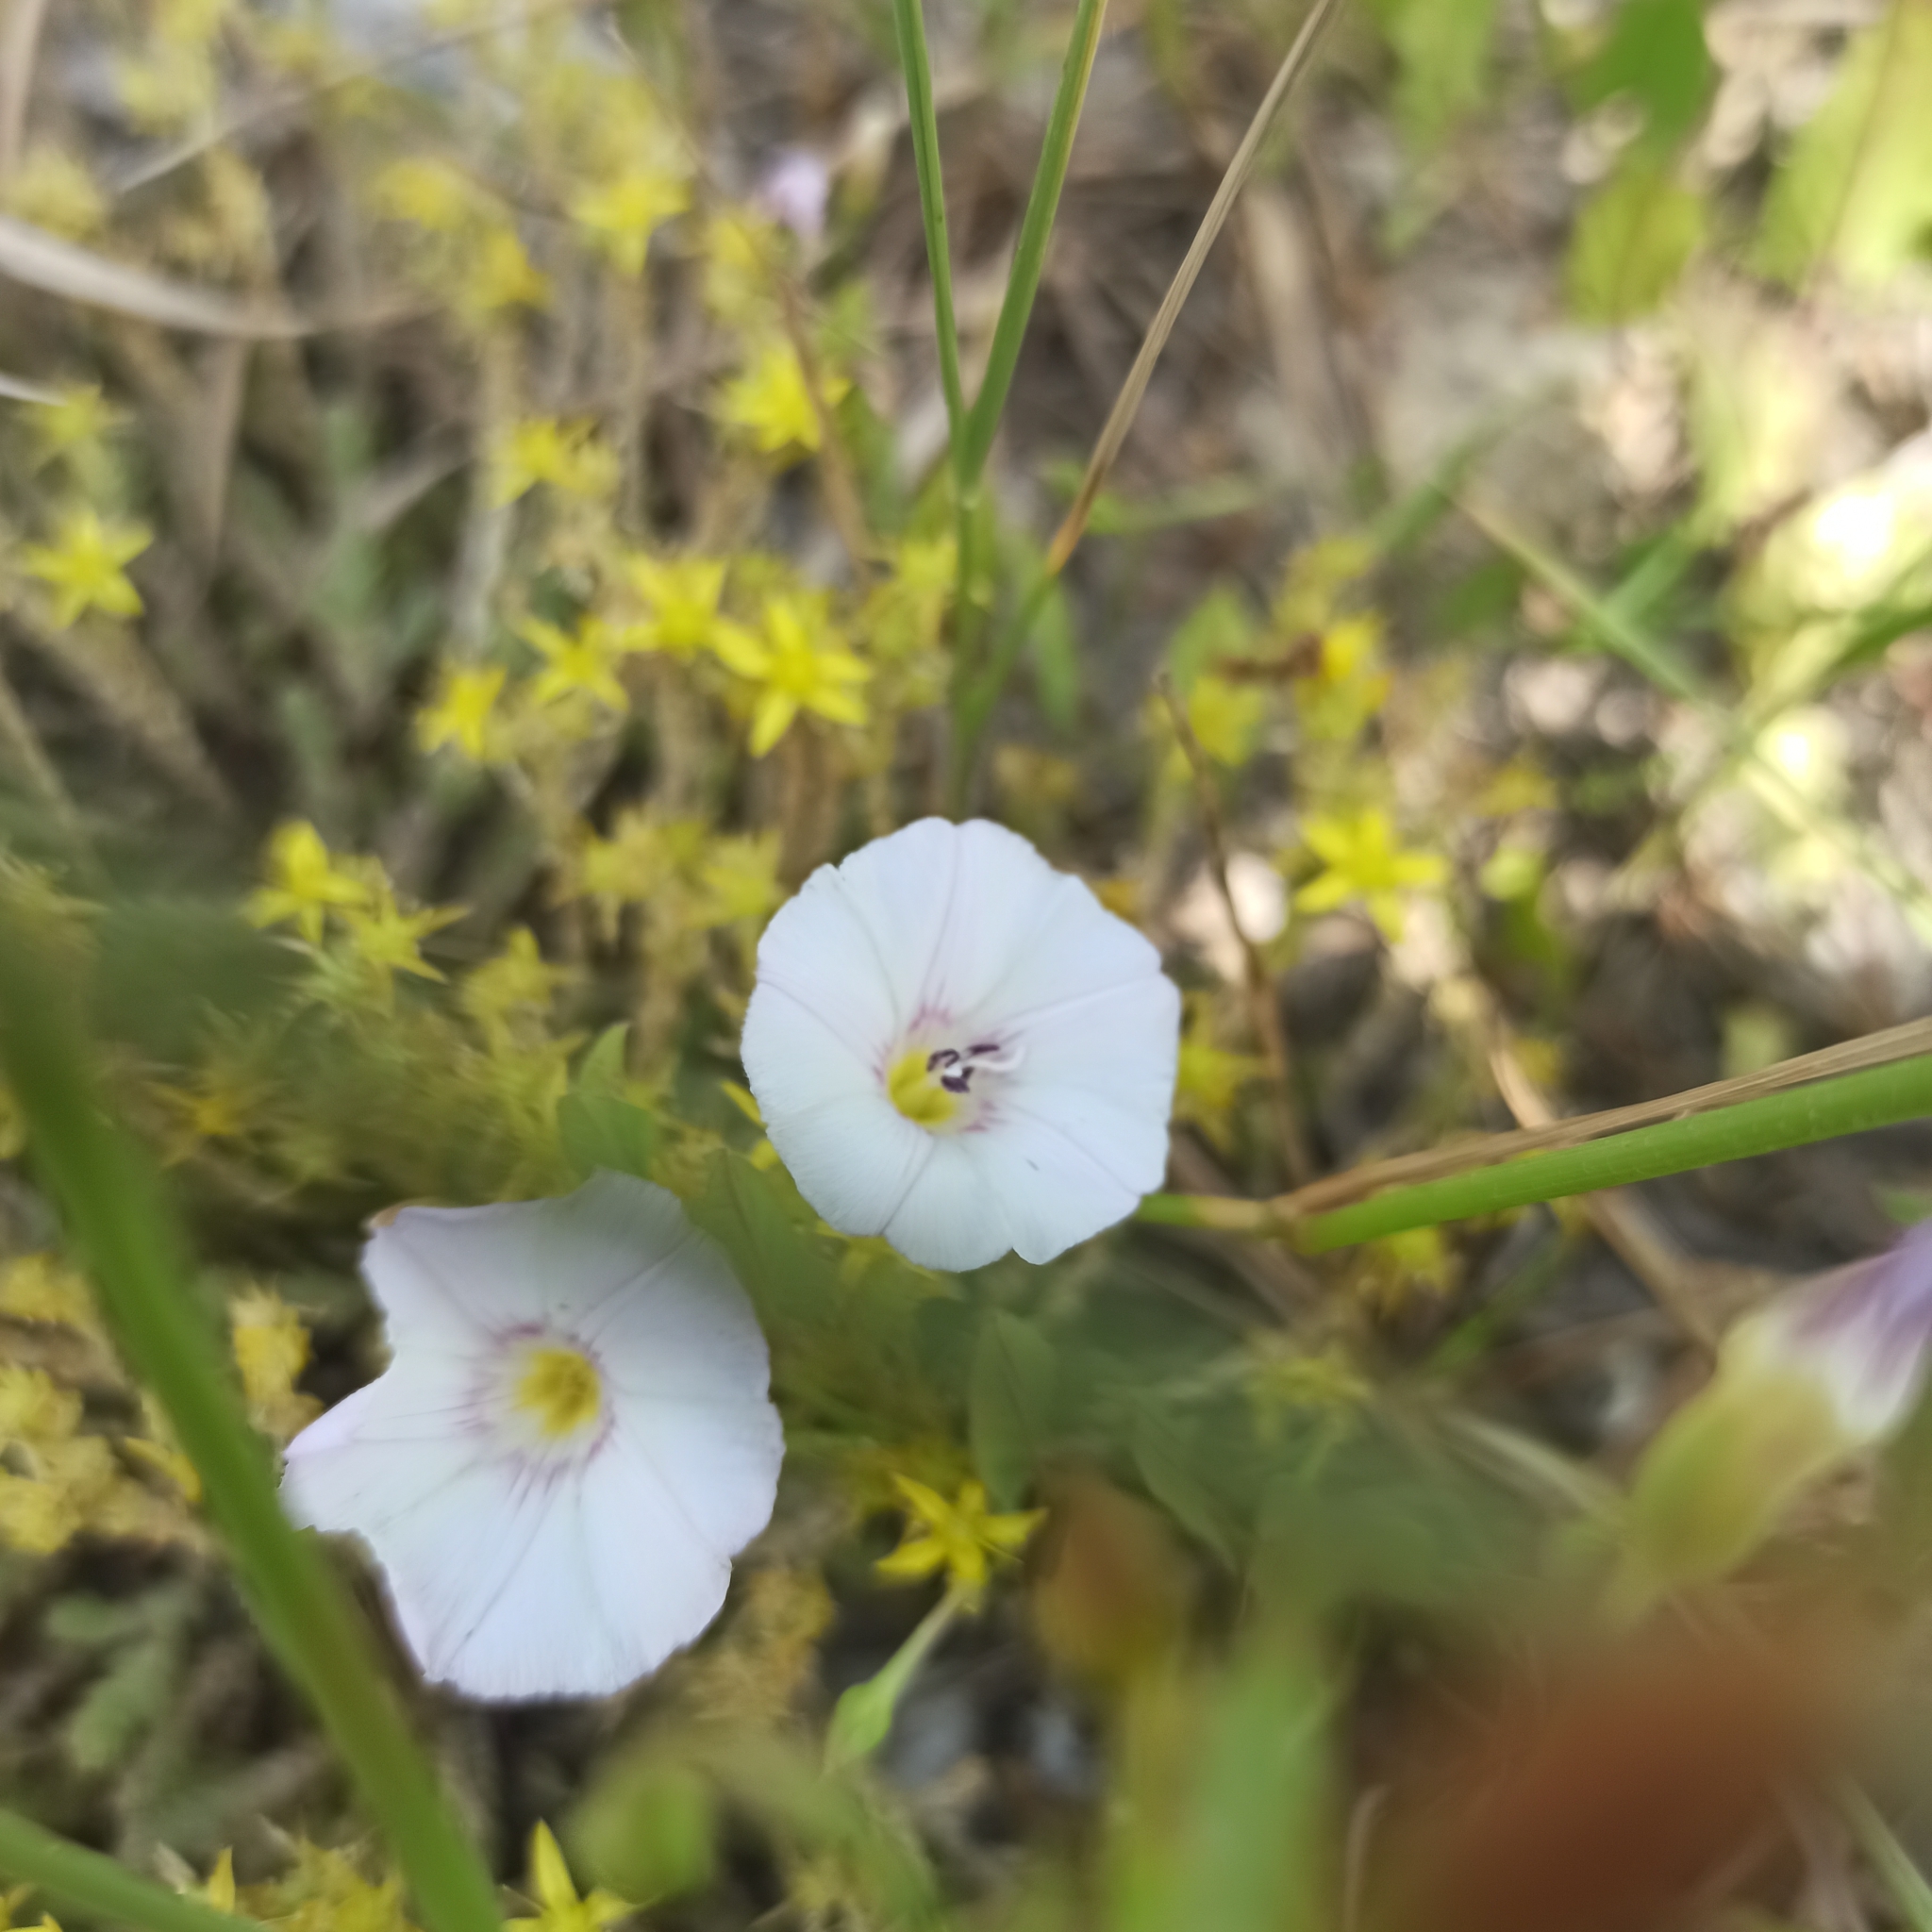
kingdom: Plantae
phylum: Tracheophyta
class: Magnoliopsida
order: Solanales
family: Convolvulaceae
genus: Convolvulus
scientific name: Convolvulus arvensis
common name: Field bindweed
